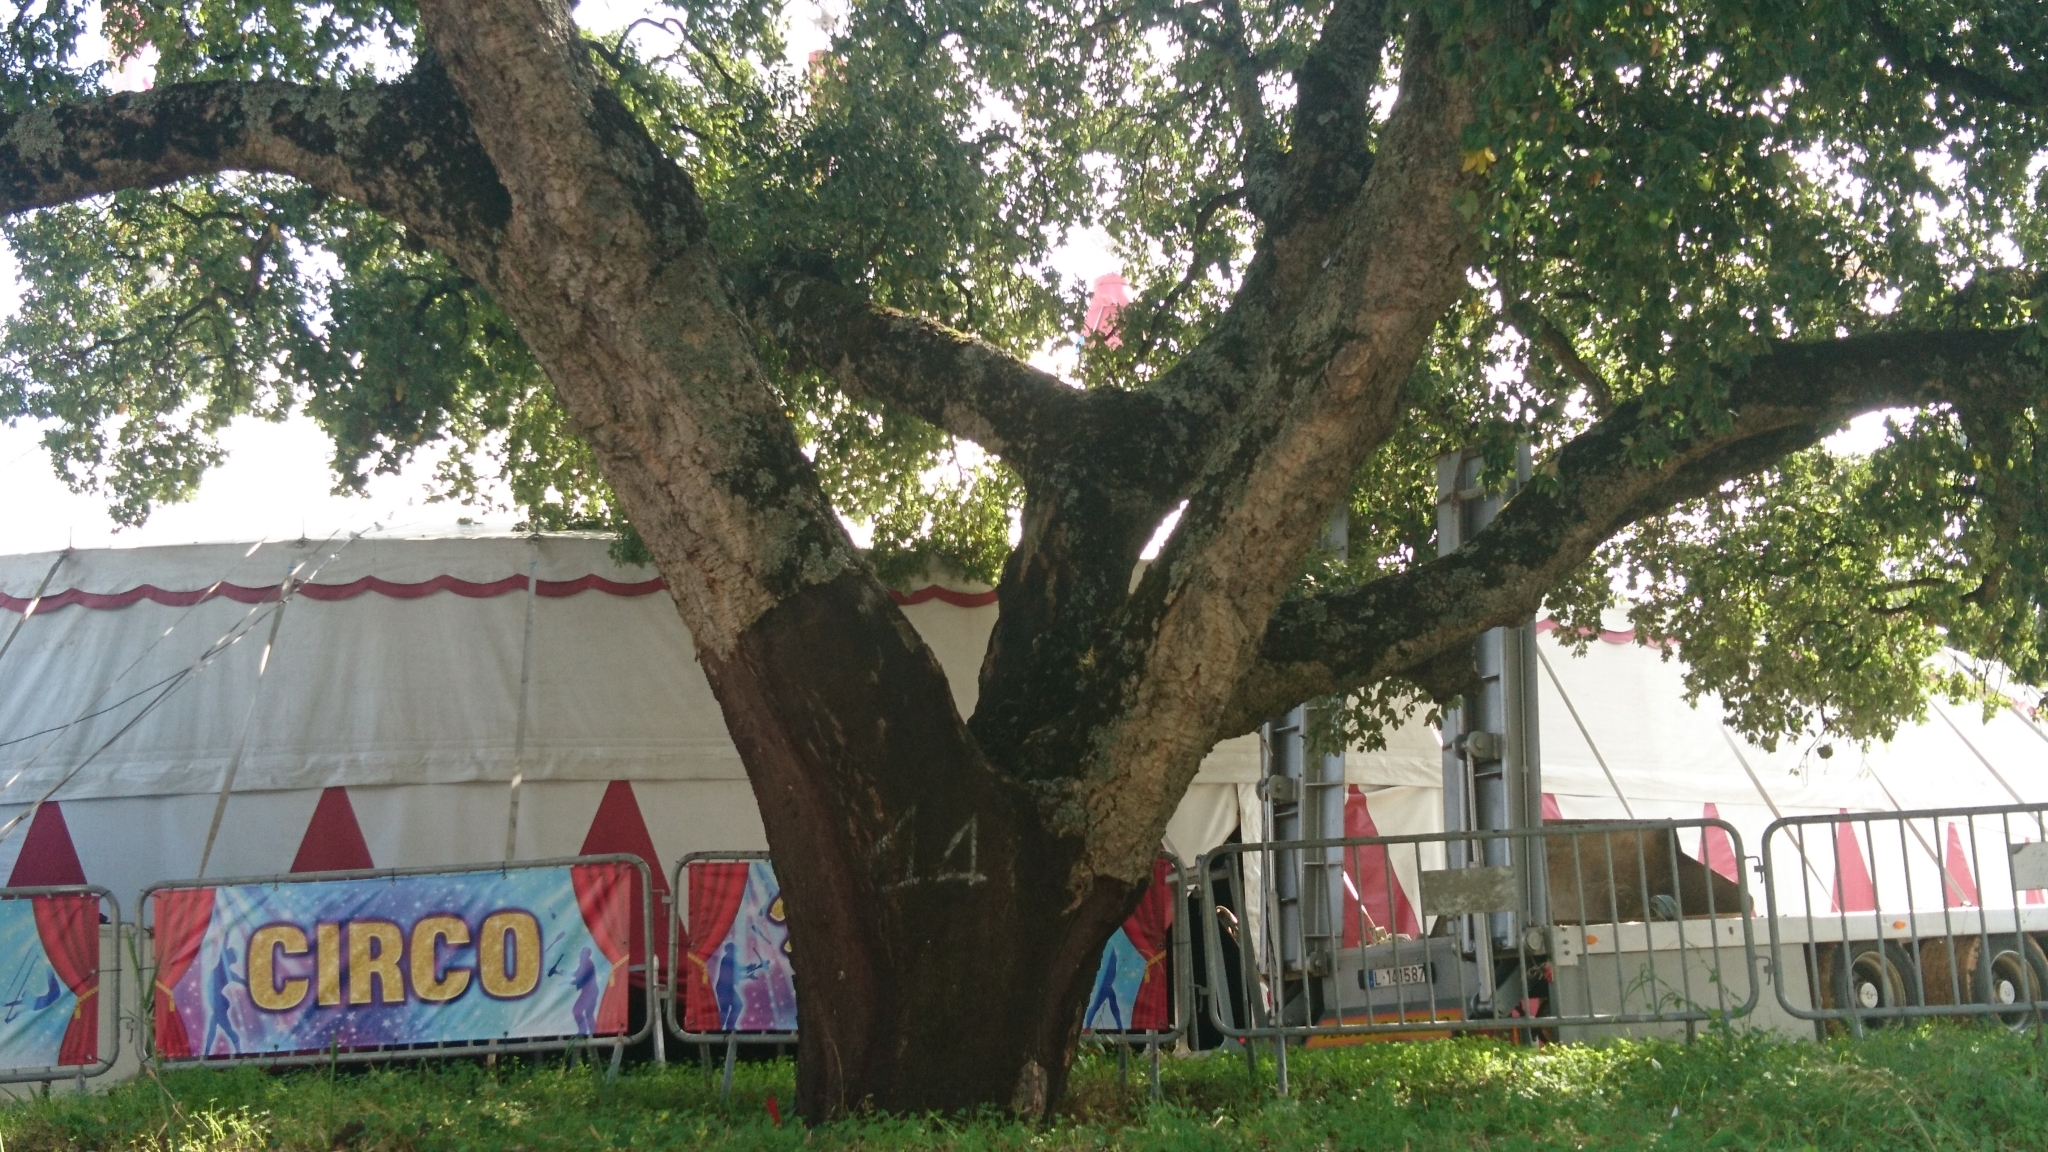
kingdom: Plantae
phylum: Tracheophyta
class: Magnoliopsida
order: Fagales
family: Fagaceae
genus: Quercus
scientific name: Quercus suber
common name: Cork oak
